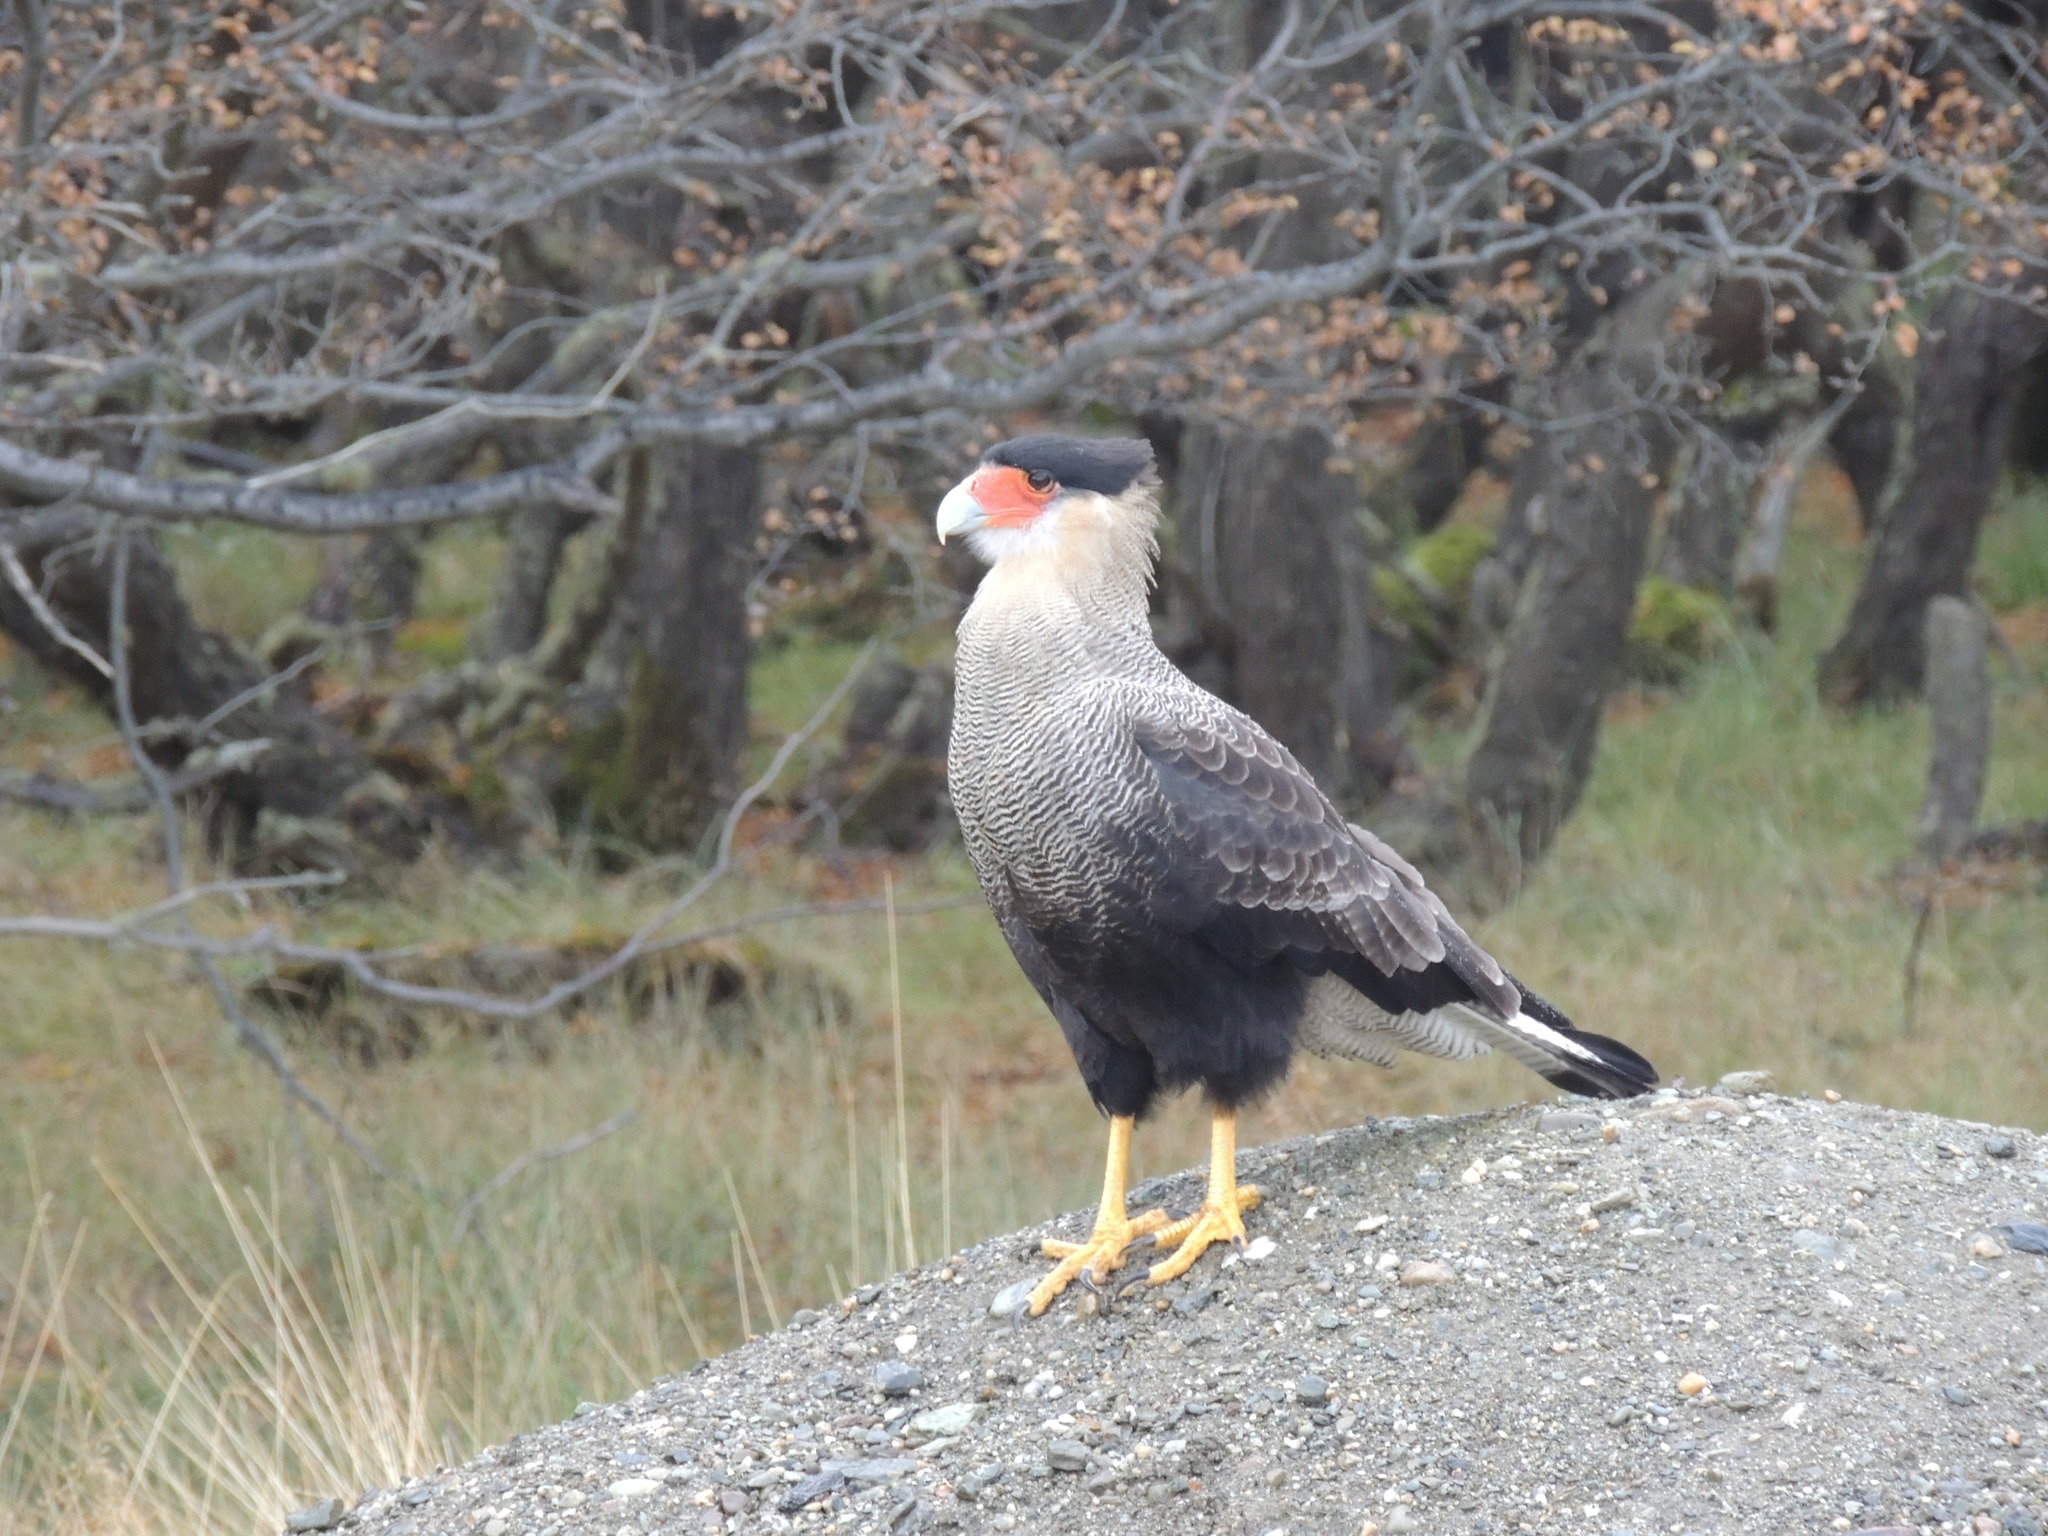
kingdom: Animalia
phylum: Chordata
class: Aves
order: Falconiformes
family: Falconidae
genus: Caracara
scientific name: Caracara plancus
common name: Southern caracara
